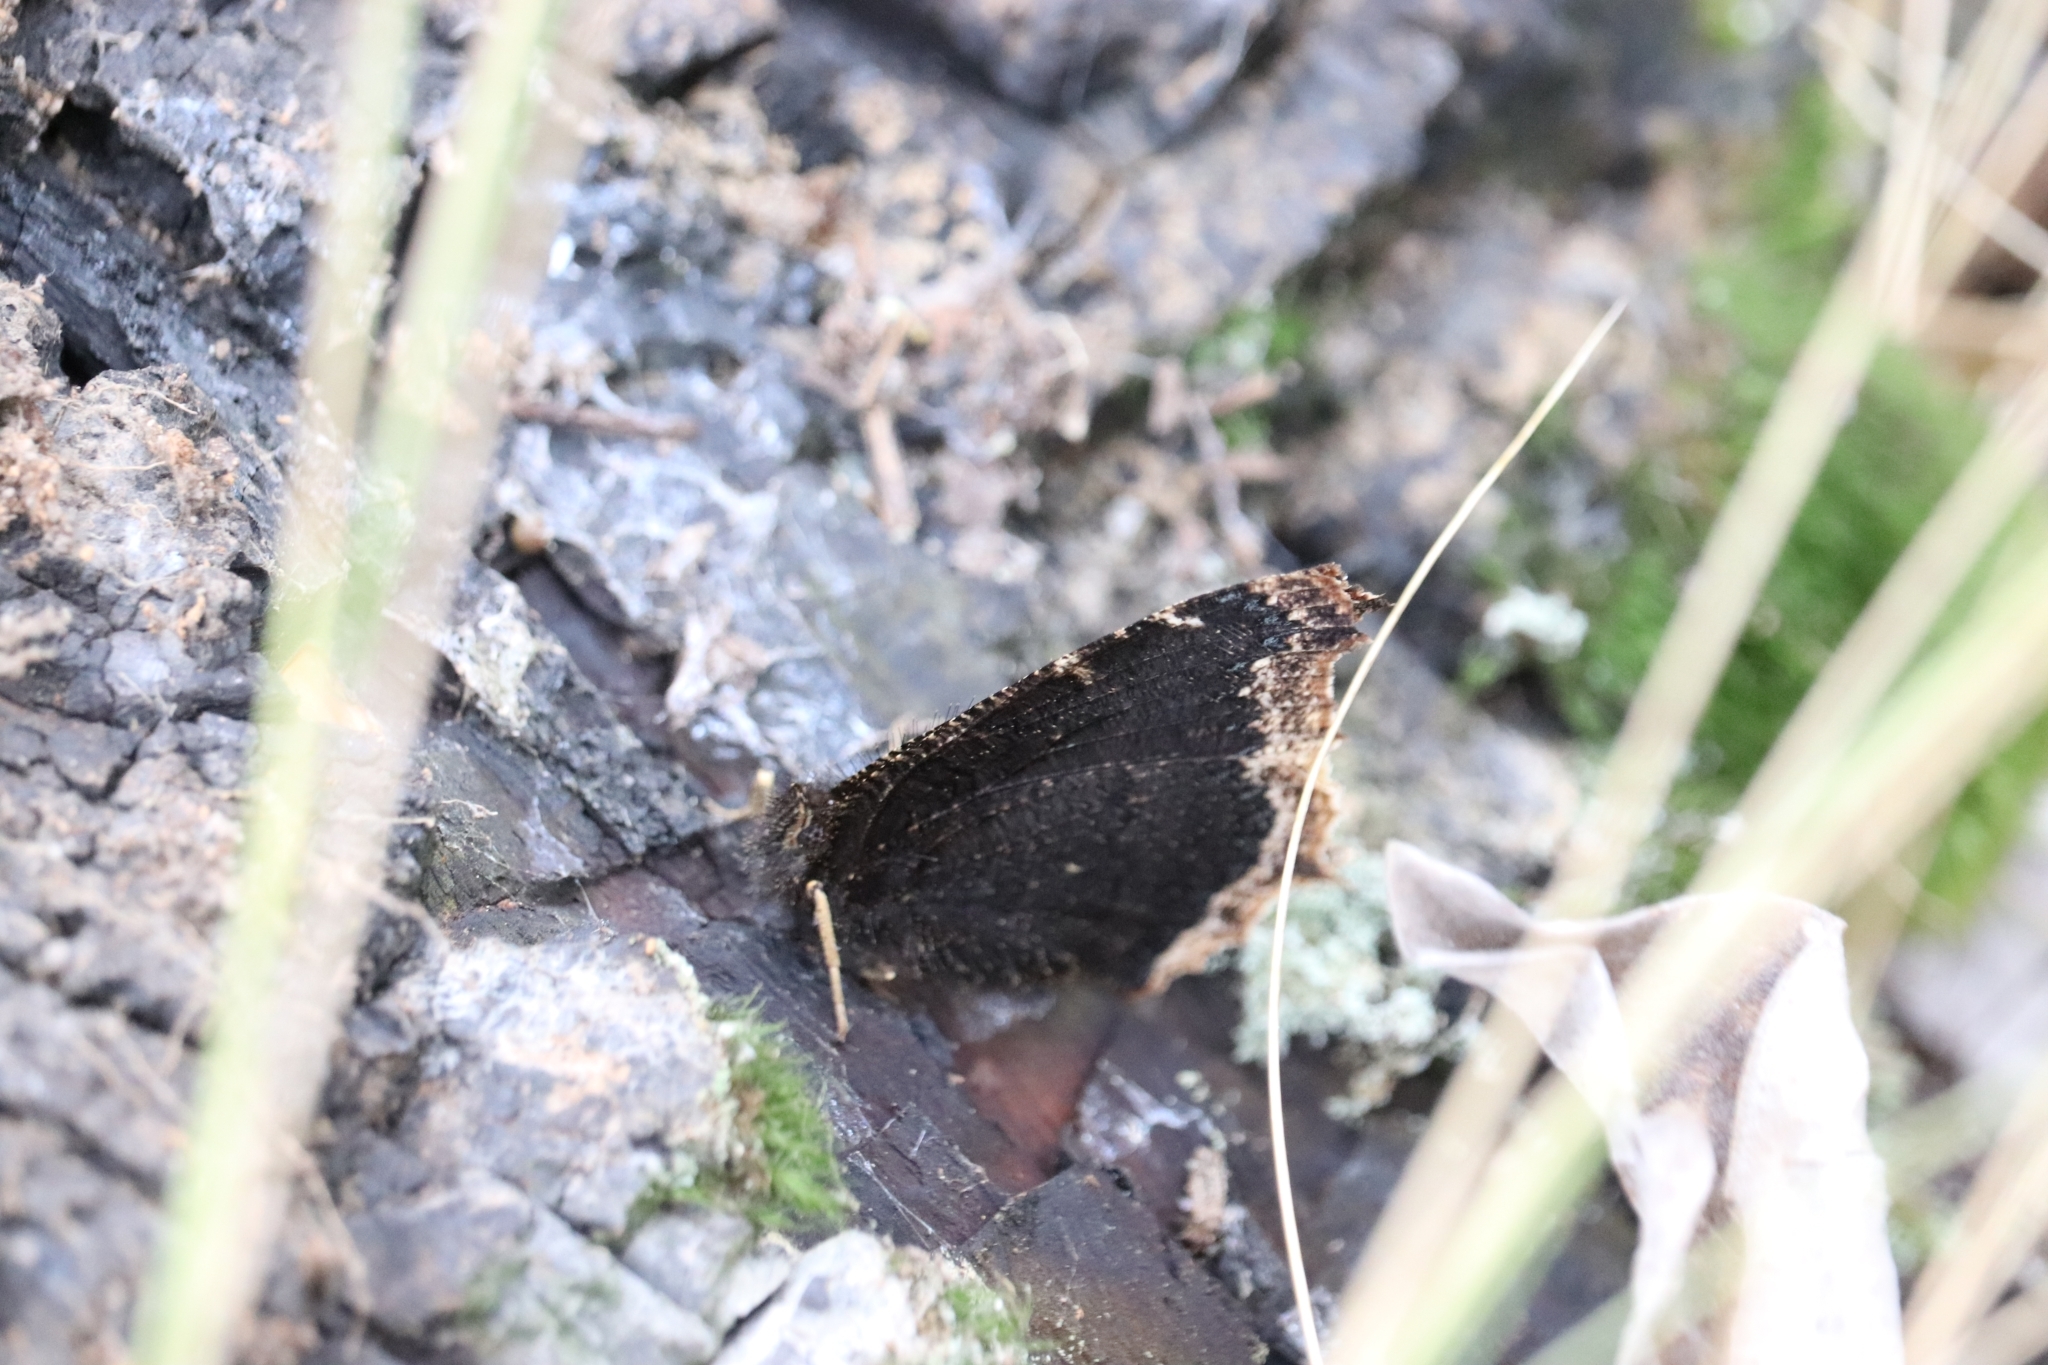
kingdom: Animalia
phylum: Arthropoda
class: Insecta
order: Lepidoptera
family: Nymphalidae
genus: Nymphalis
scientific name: Nymphalis antiopa
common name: Camberwell beauty
